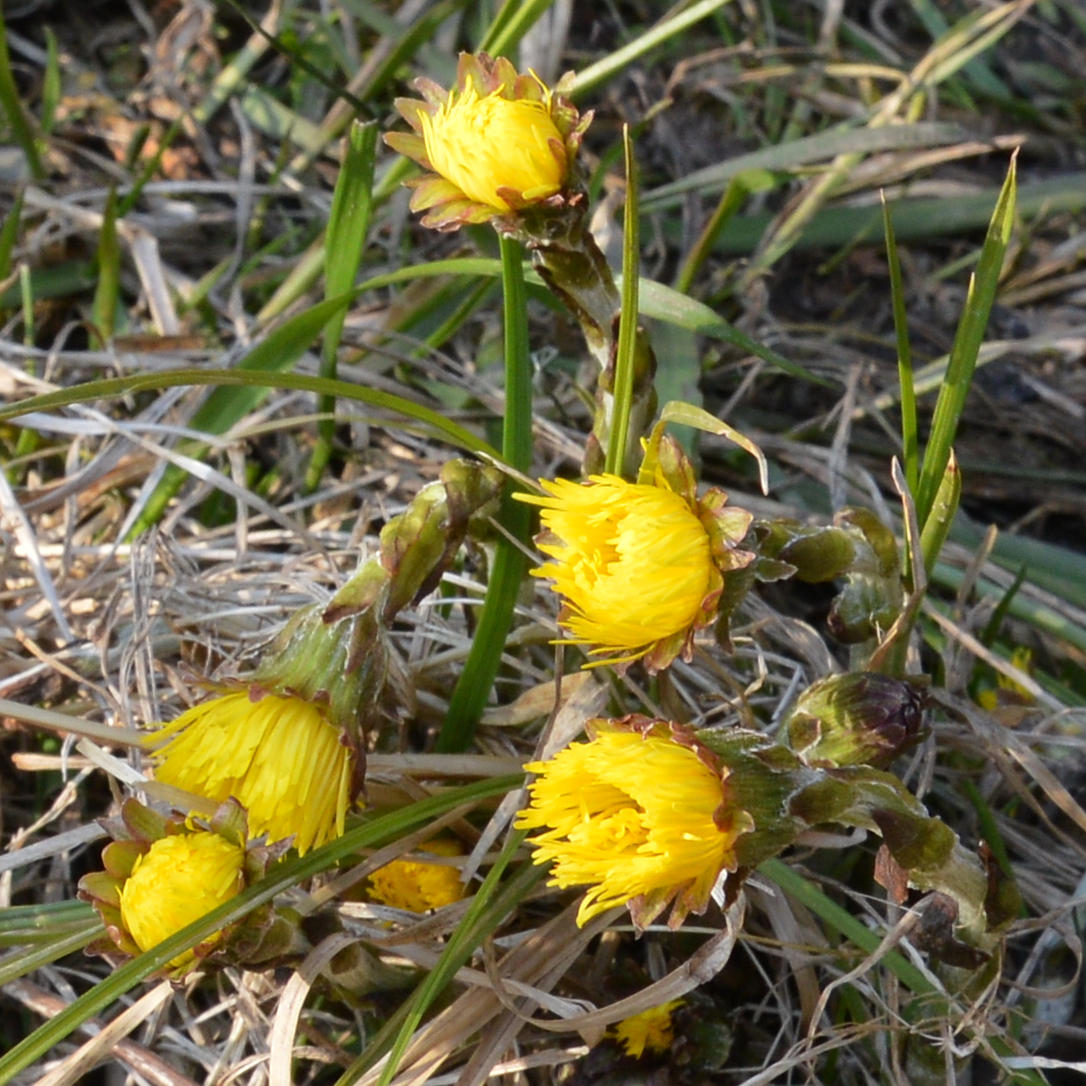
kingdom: Plantae
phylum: Tracheophyta
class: Magnoliopsida
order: Asterales
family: Asteraceae
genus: Tussilago
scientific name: Tussilago farfara
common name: Coltsfoot
